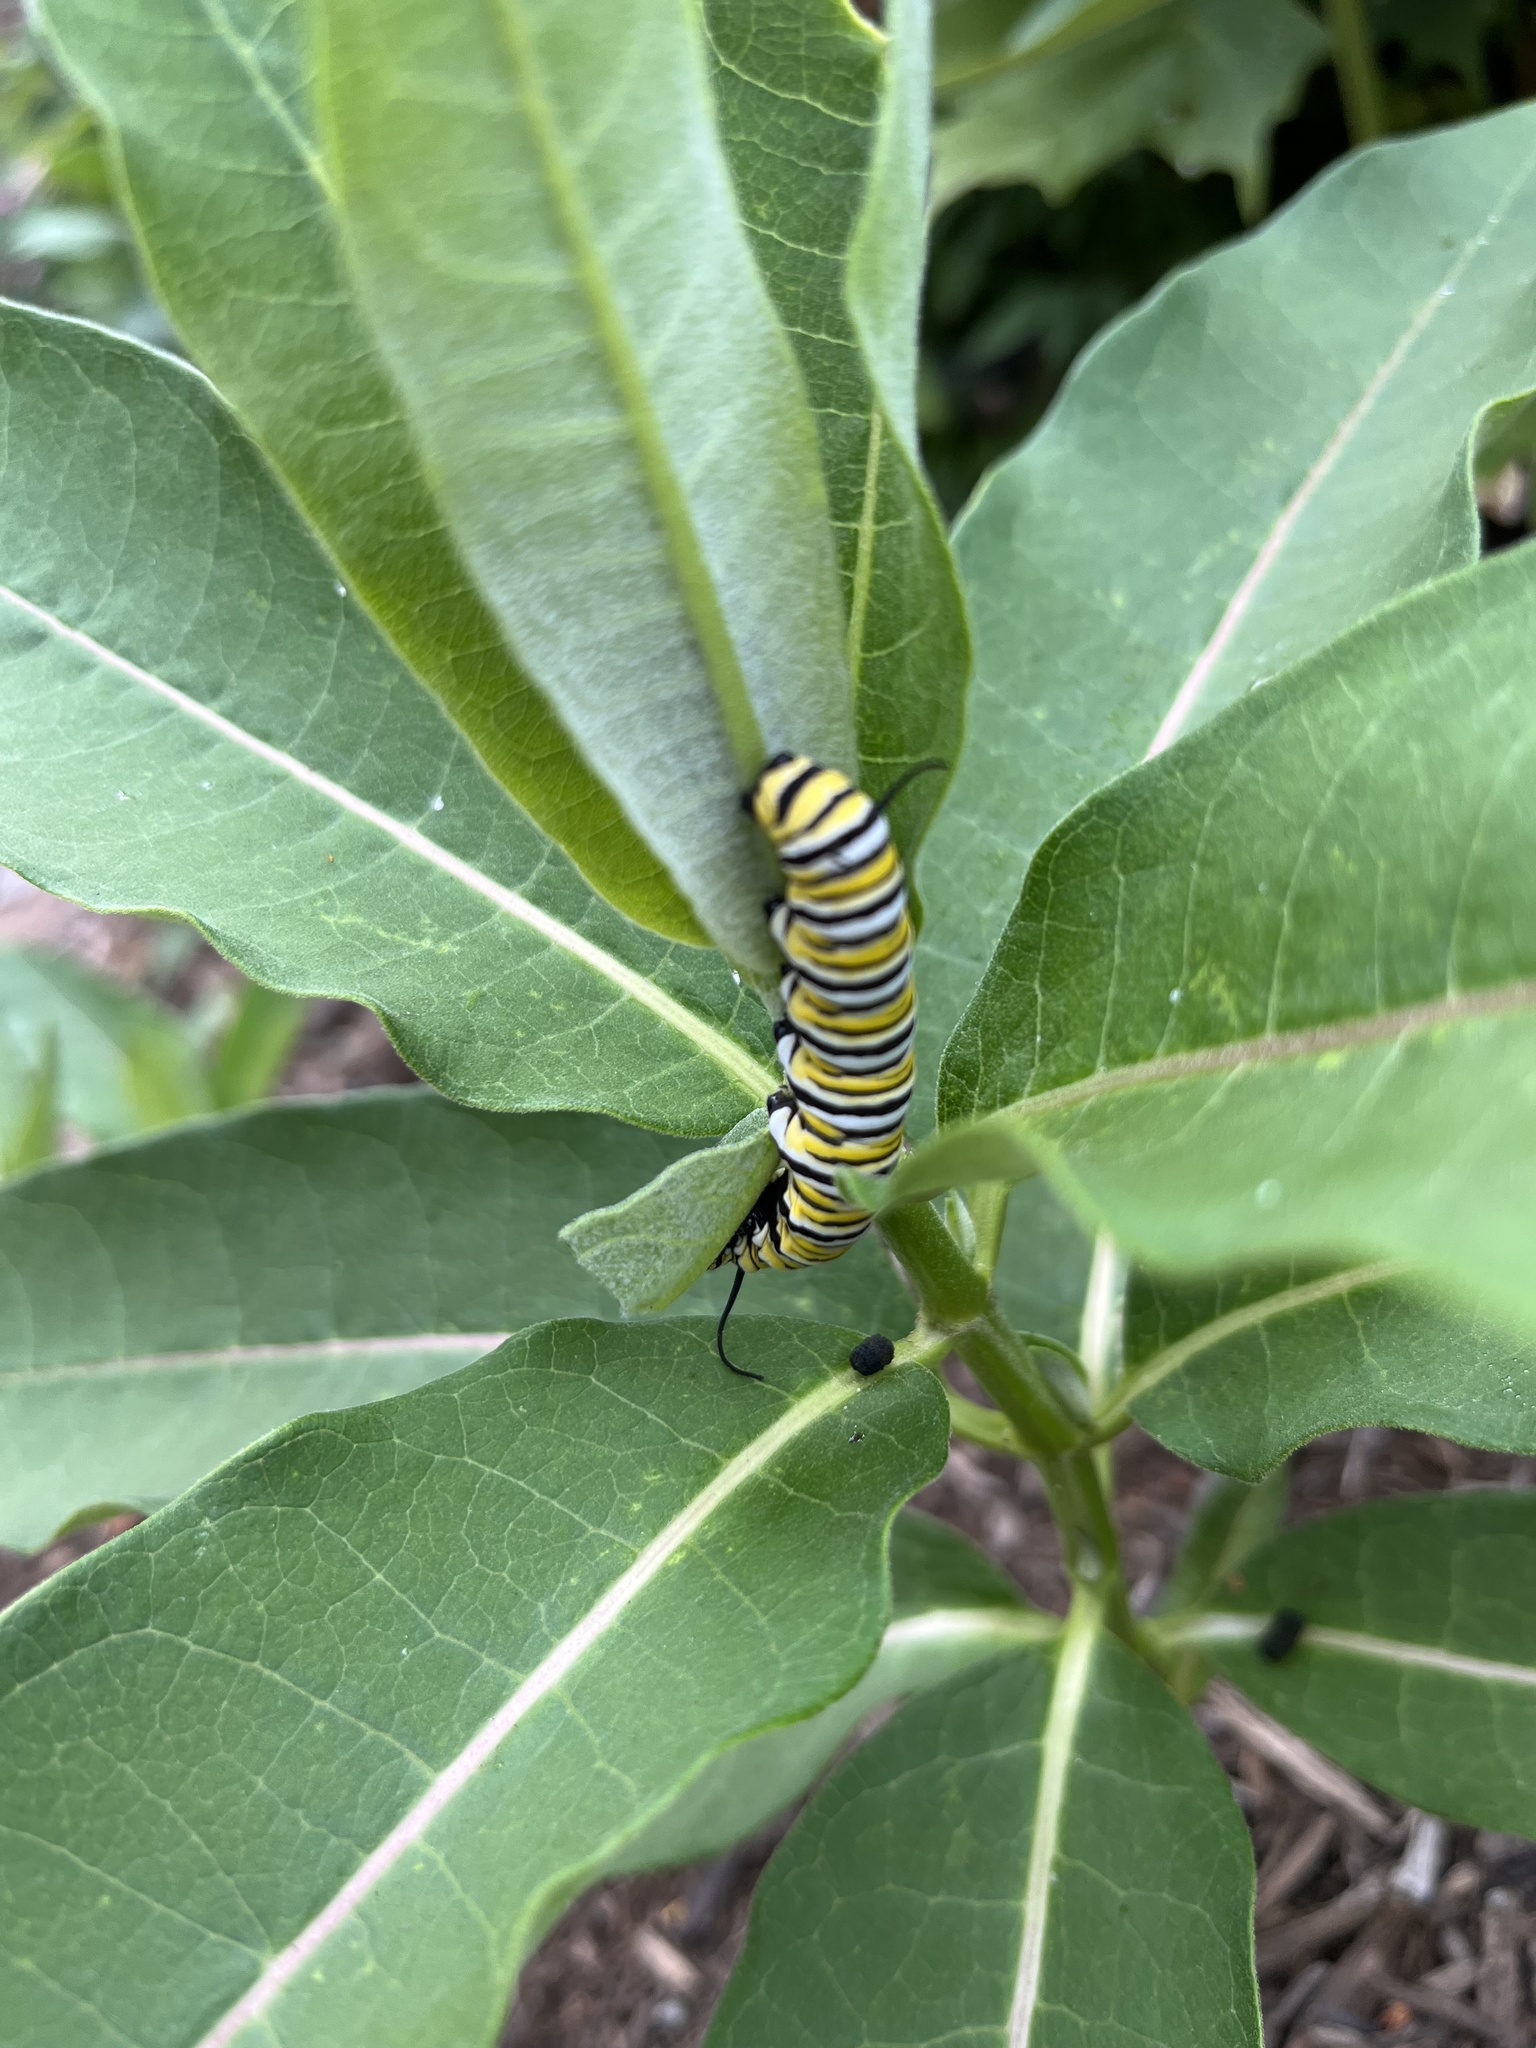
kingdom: Animalia
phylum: Arthropoda
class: Insecta
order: Lepidoptera
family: Nymphalidae
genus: Danaus
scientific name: Danaus plexippus
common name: Monarch
